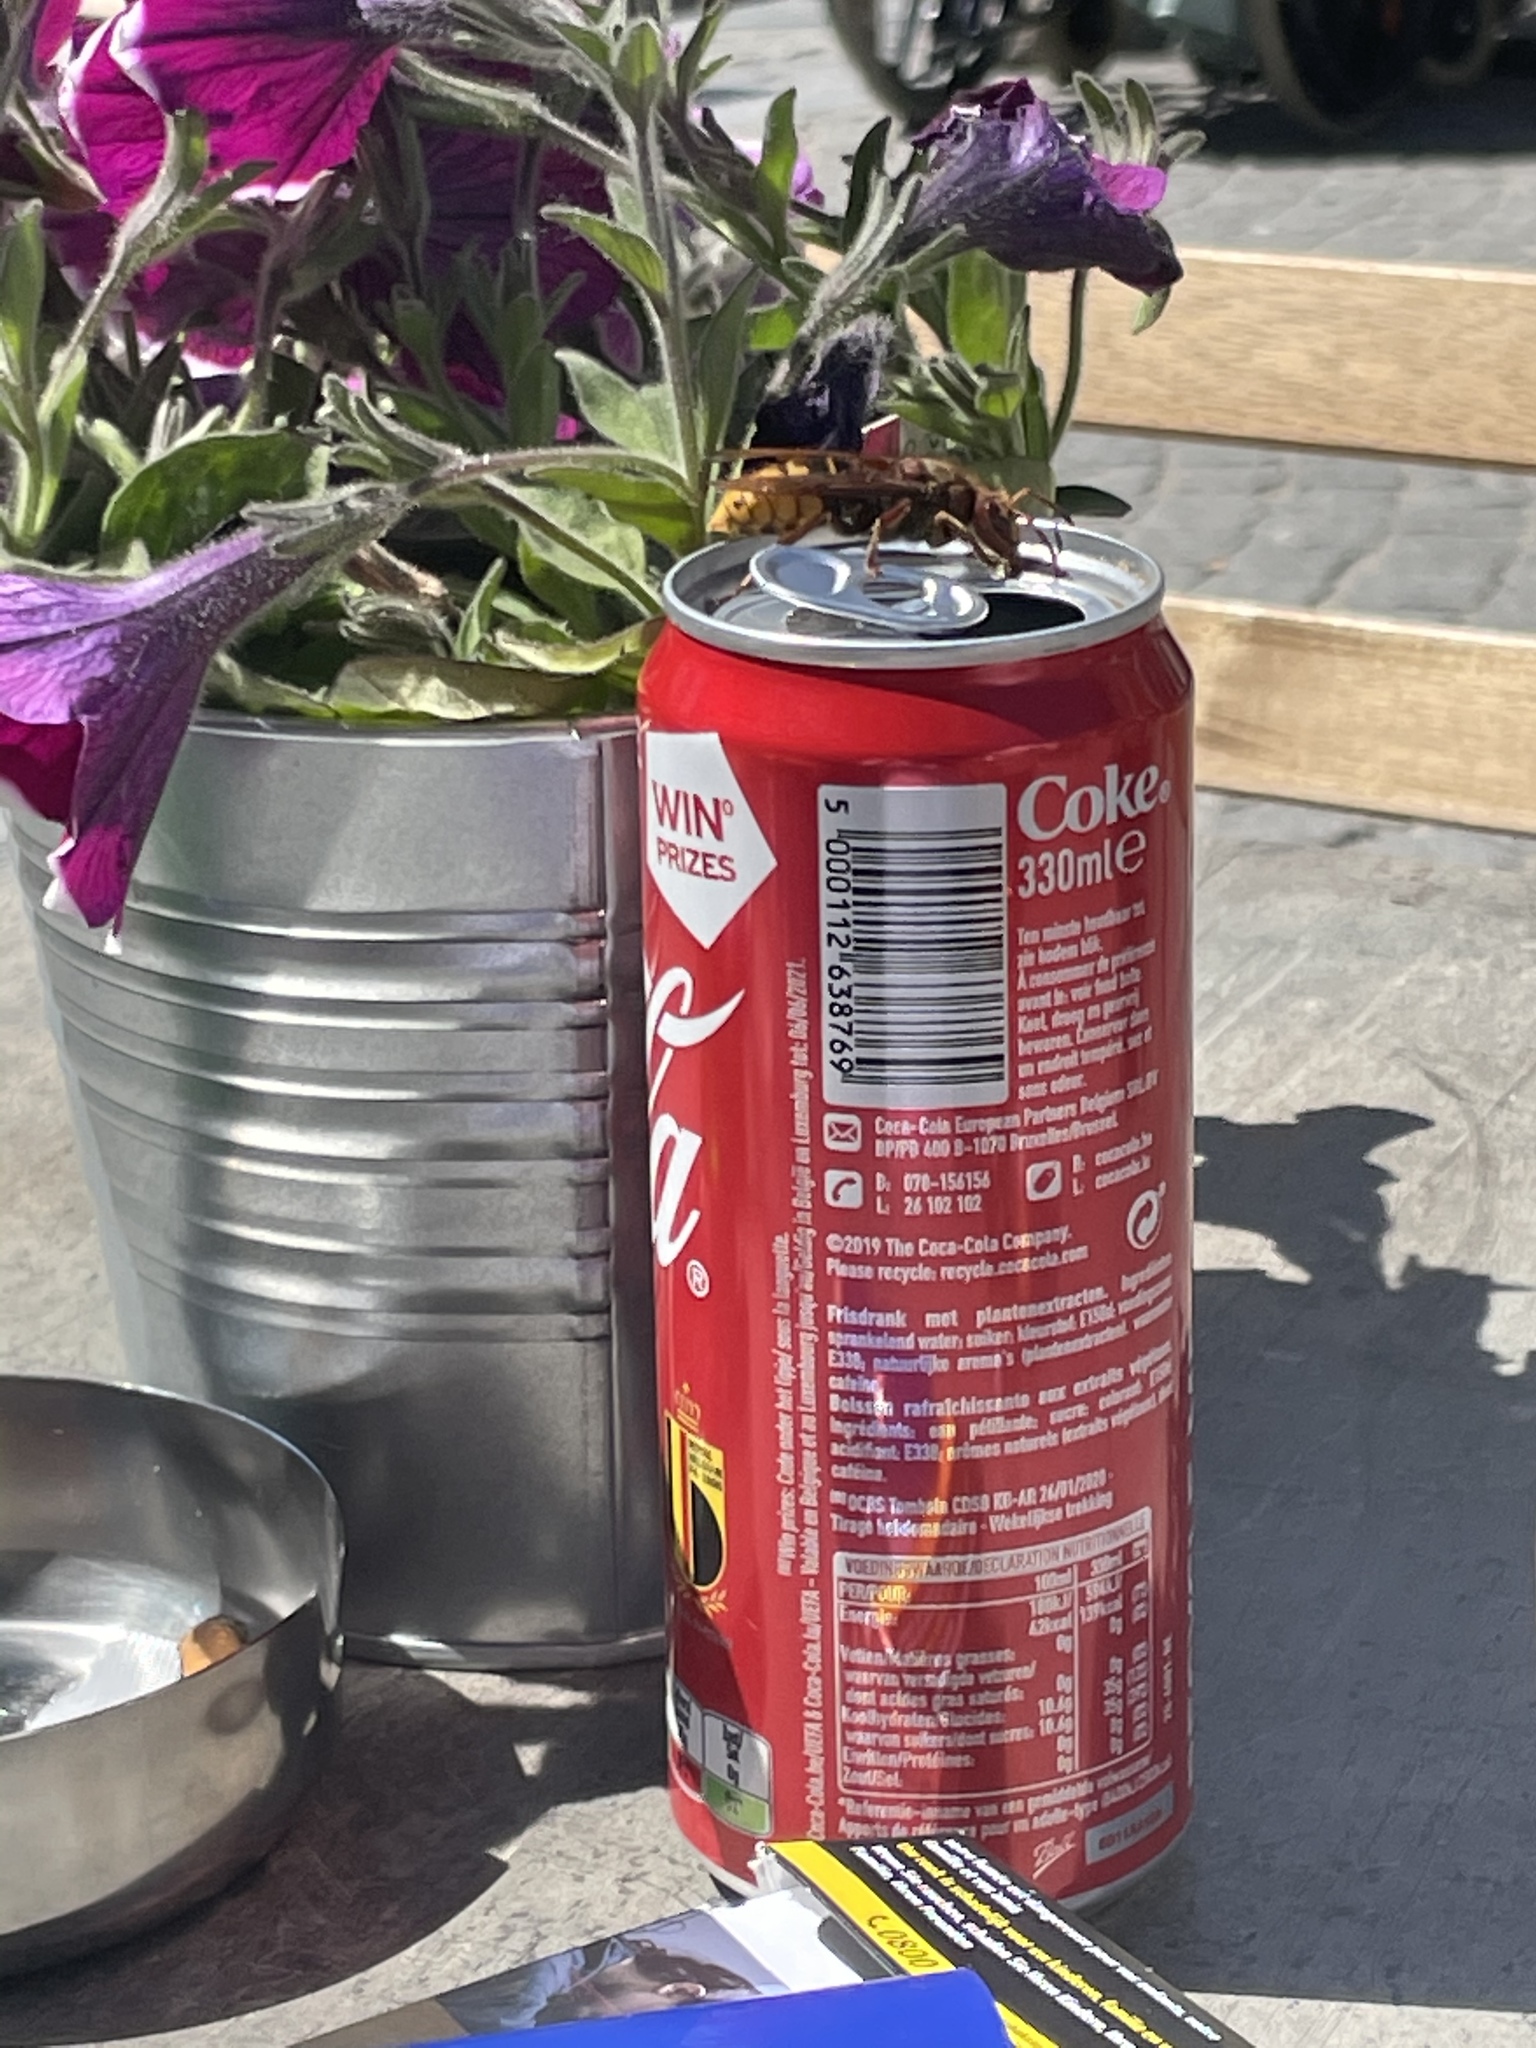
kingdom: Animalia
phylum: Arthropoda
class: Insecta
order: Hymenoptera
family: Vespidae
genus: Vespa
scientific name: Vespa crabro
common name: Hornet
